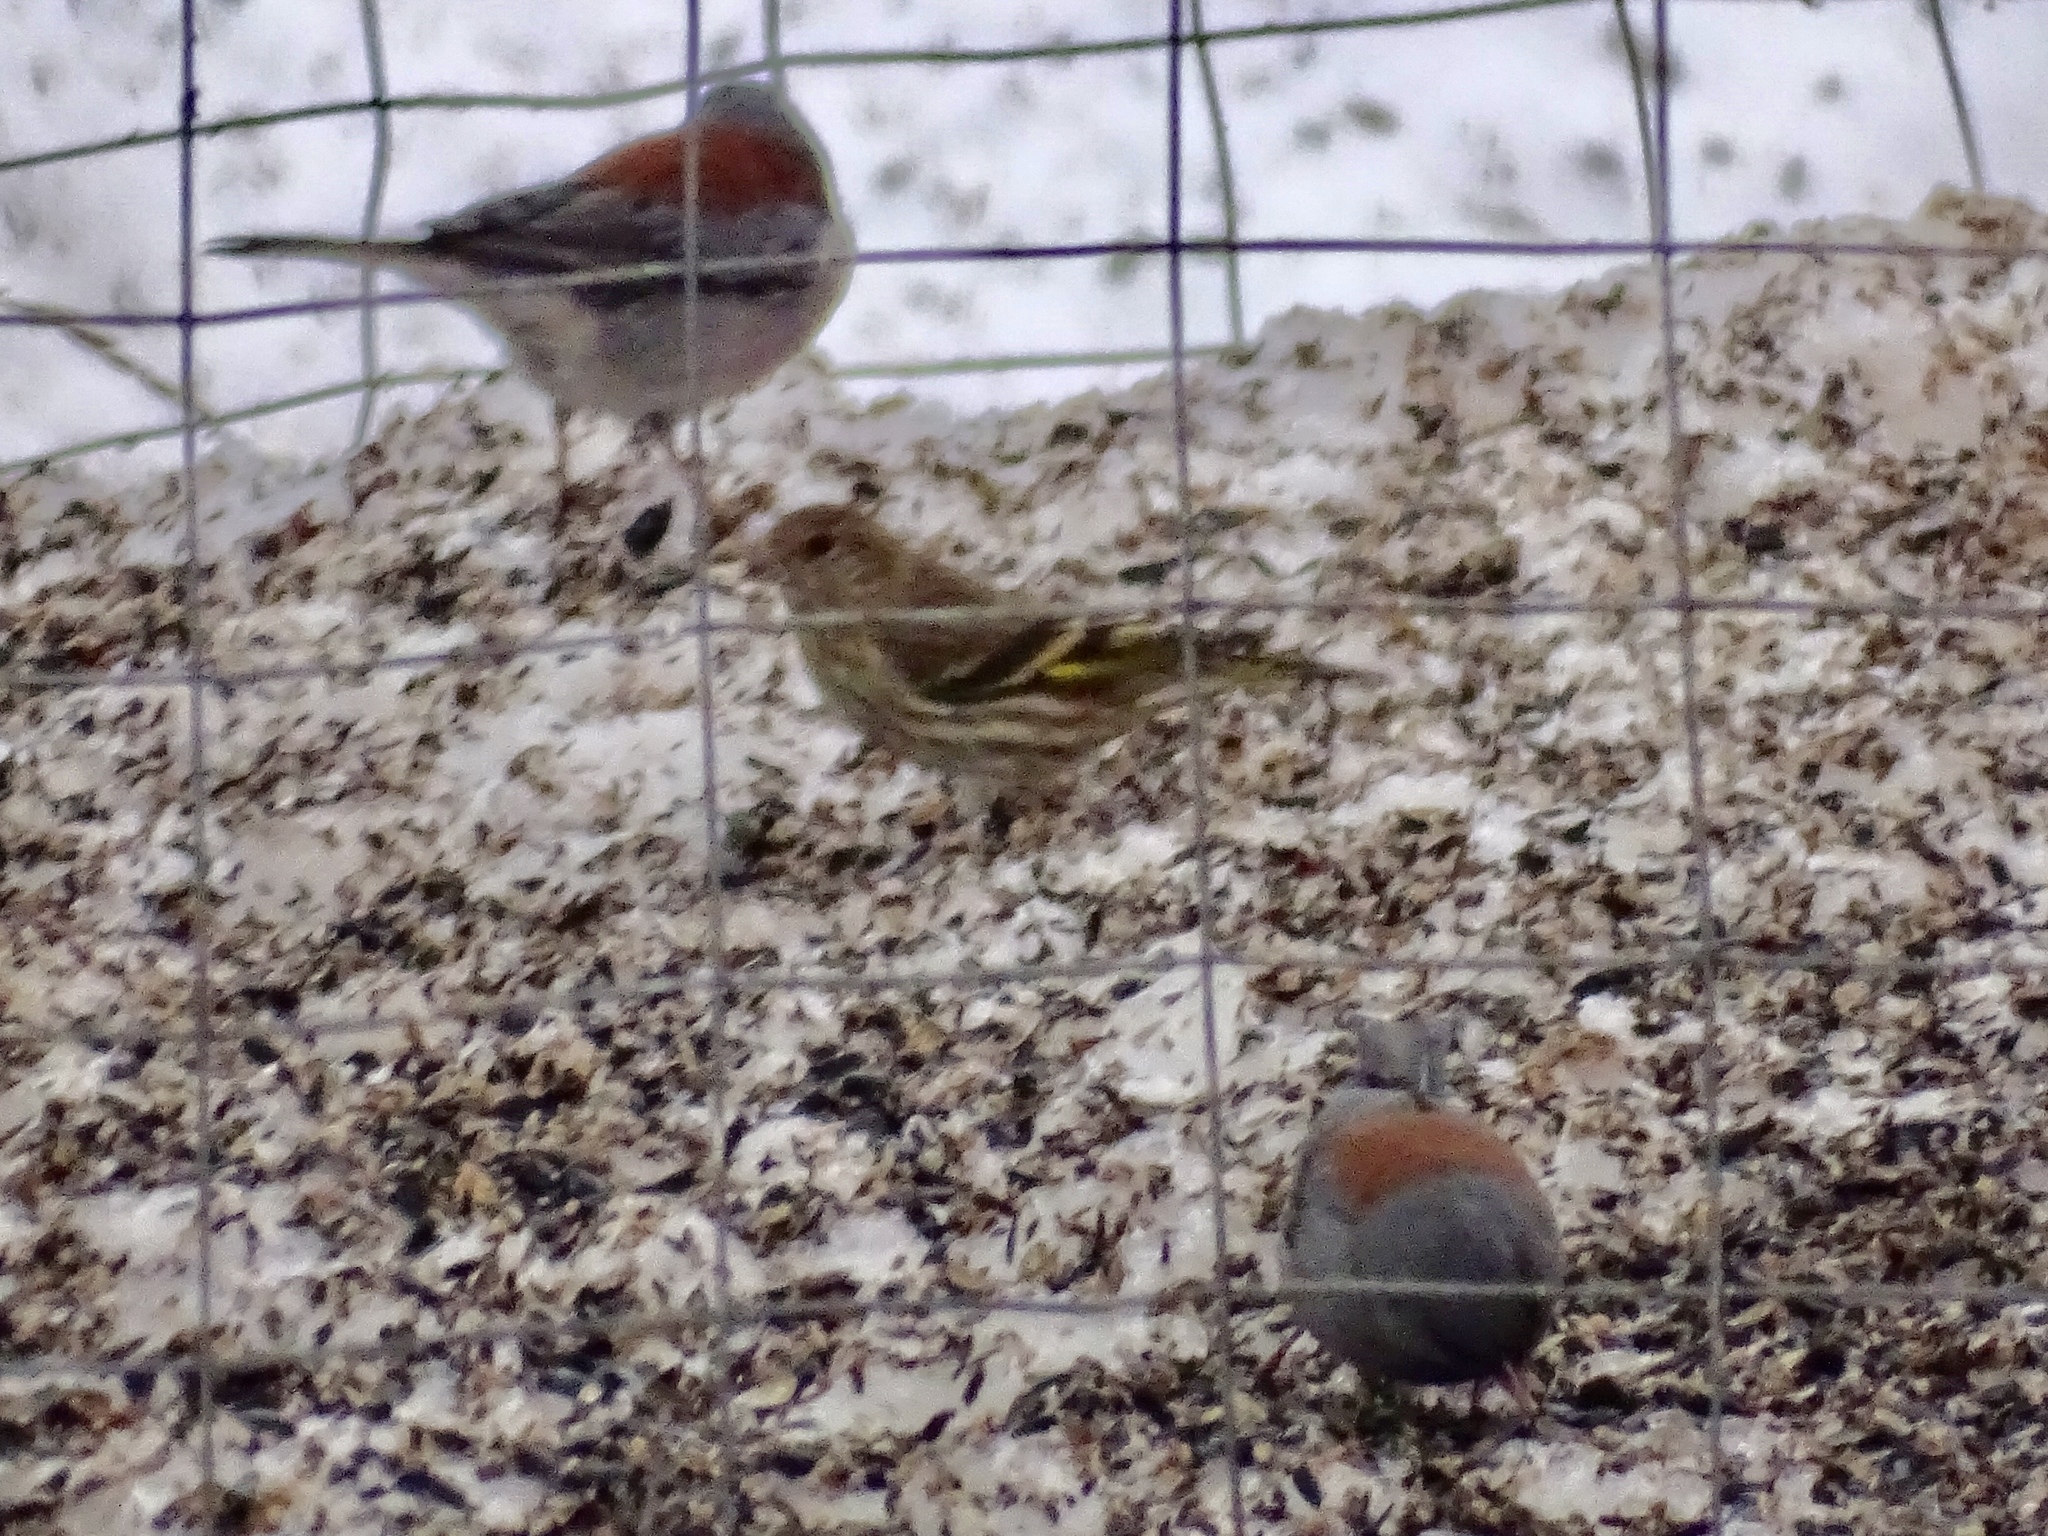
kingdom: Animalia
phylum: Chordata
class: Aves
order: Passeriformes
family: Passerellidae
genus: Junco
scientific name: Junco hyemalis
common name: Dark-eyed junco
